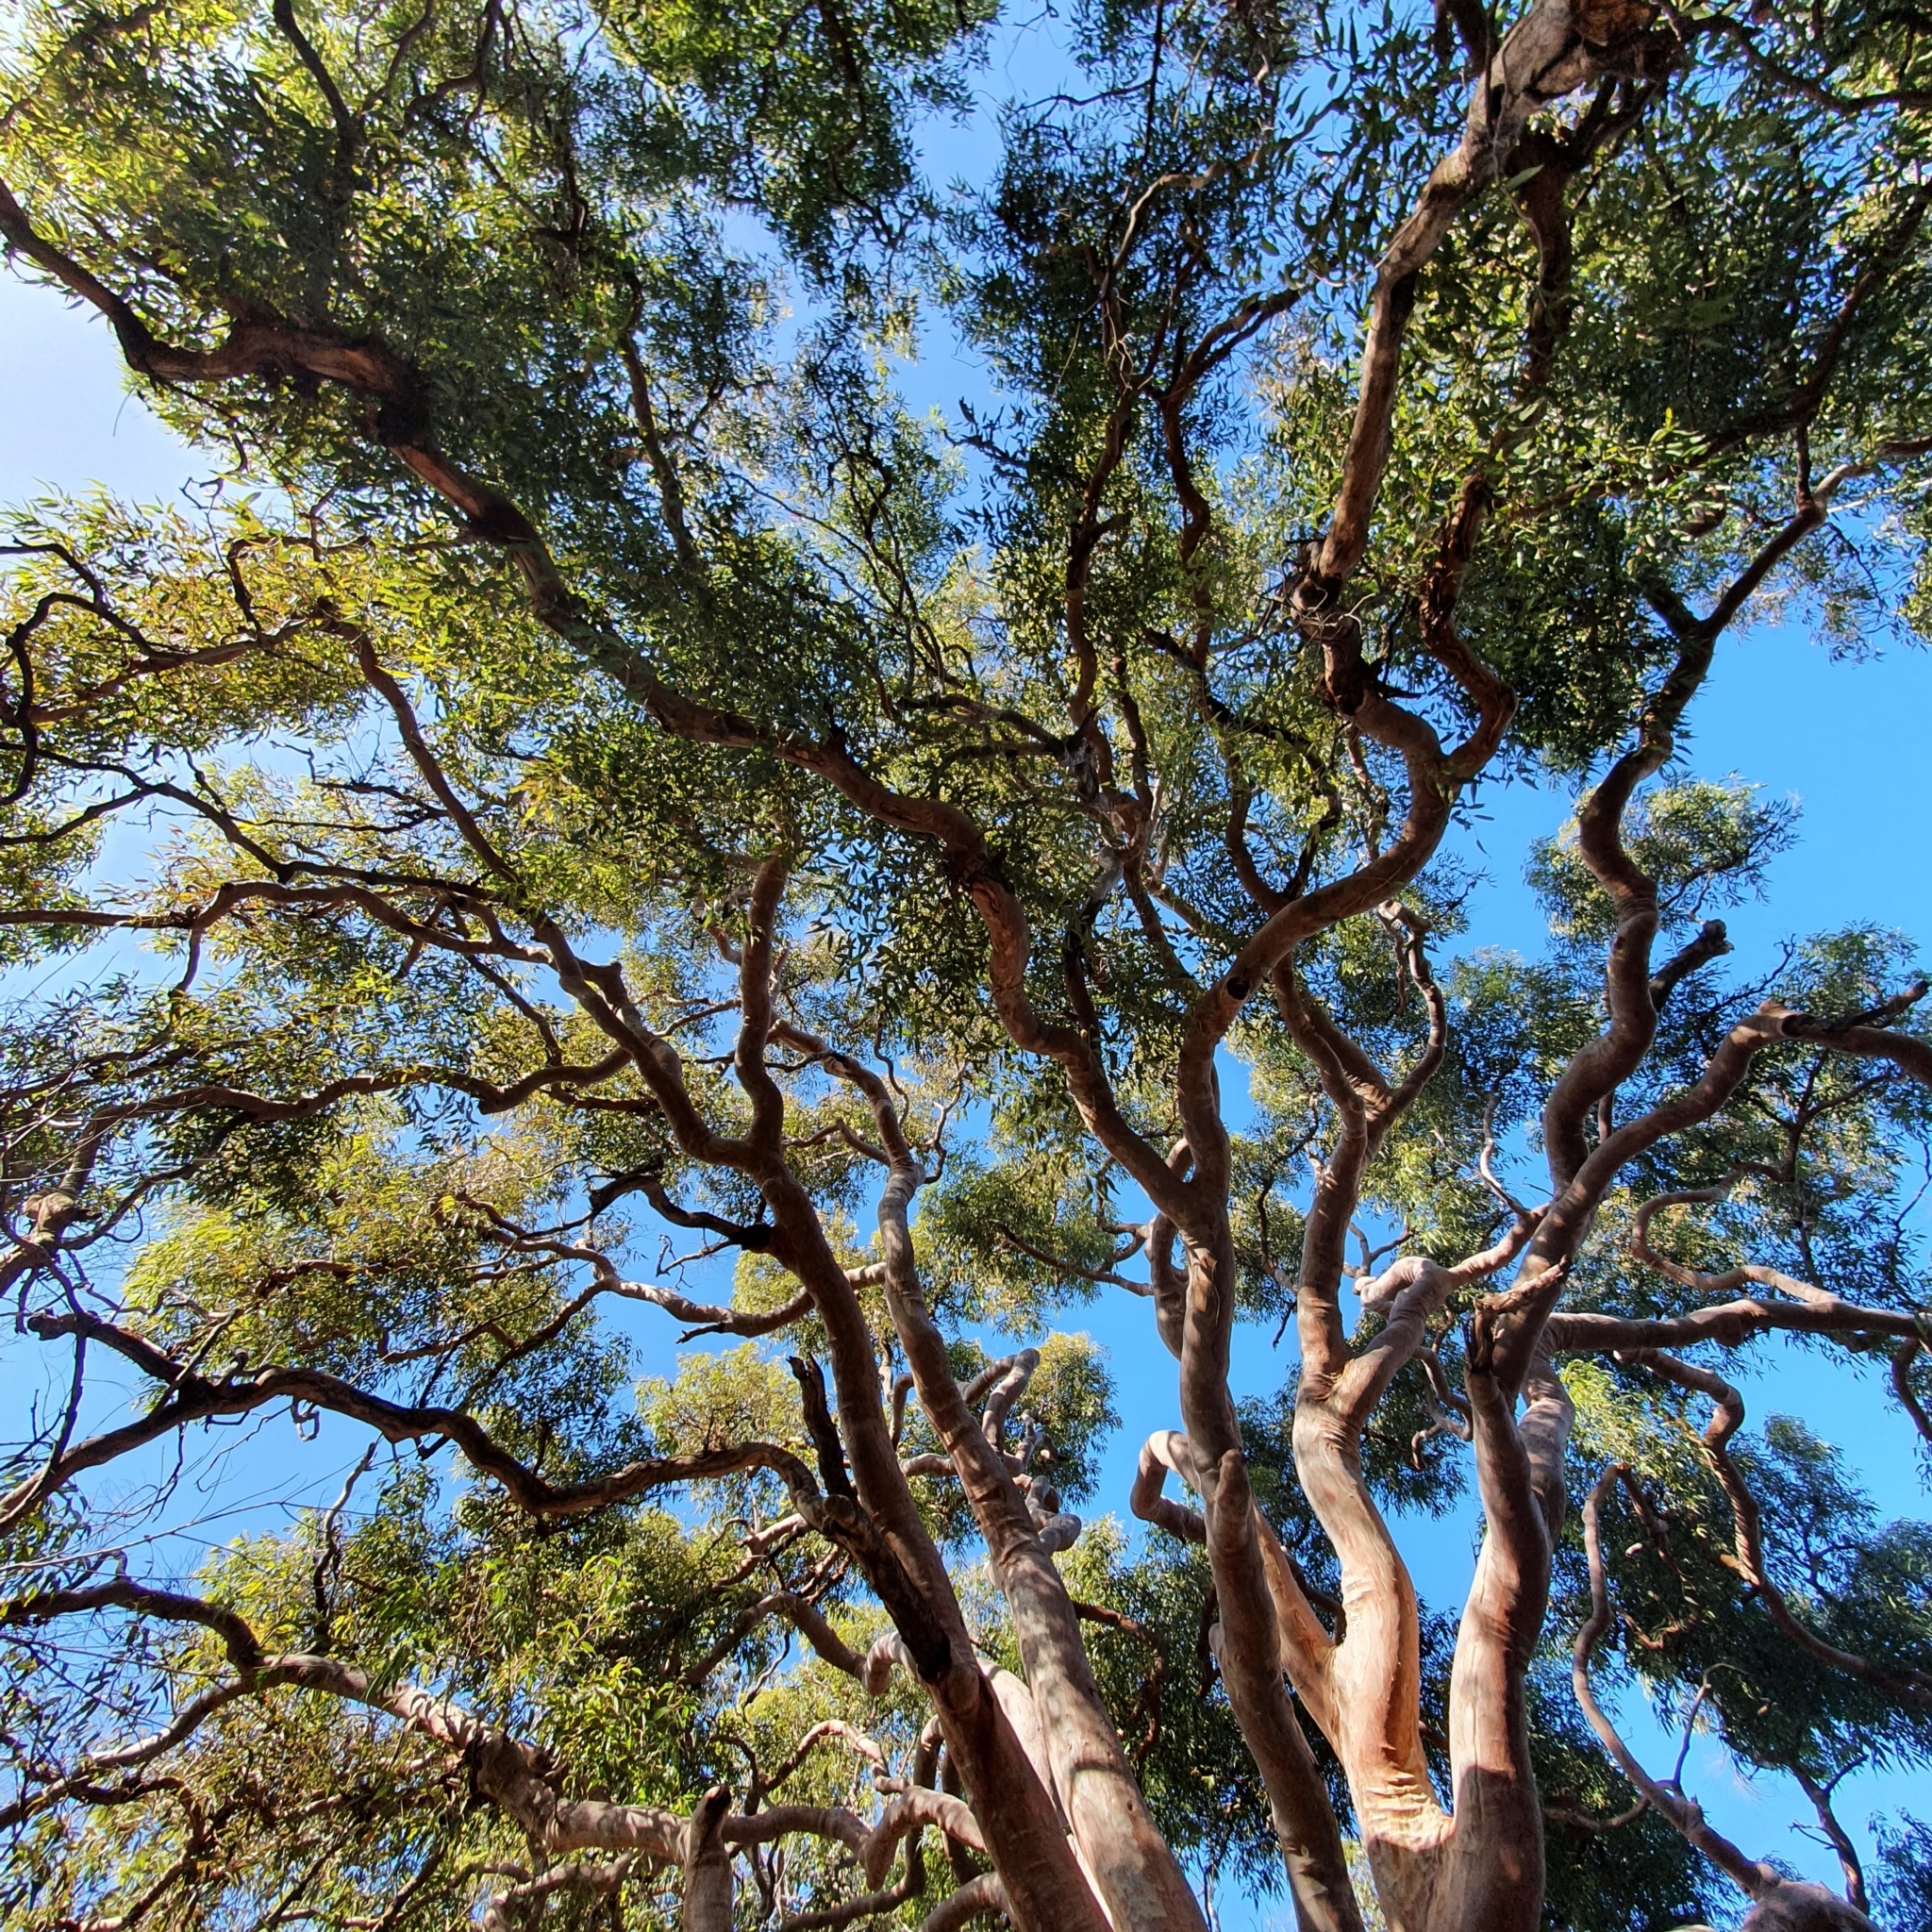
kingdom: Plantae
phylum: Tracheophyta
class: Magnoliopsida
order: Myrtales
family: Myrtaceae
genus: Angophora
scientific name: Angophora costata
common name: Gum myrtle
